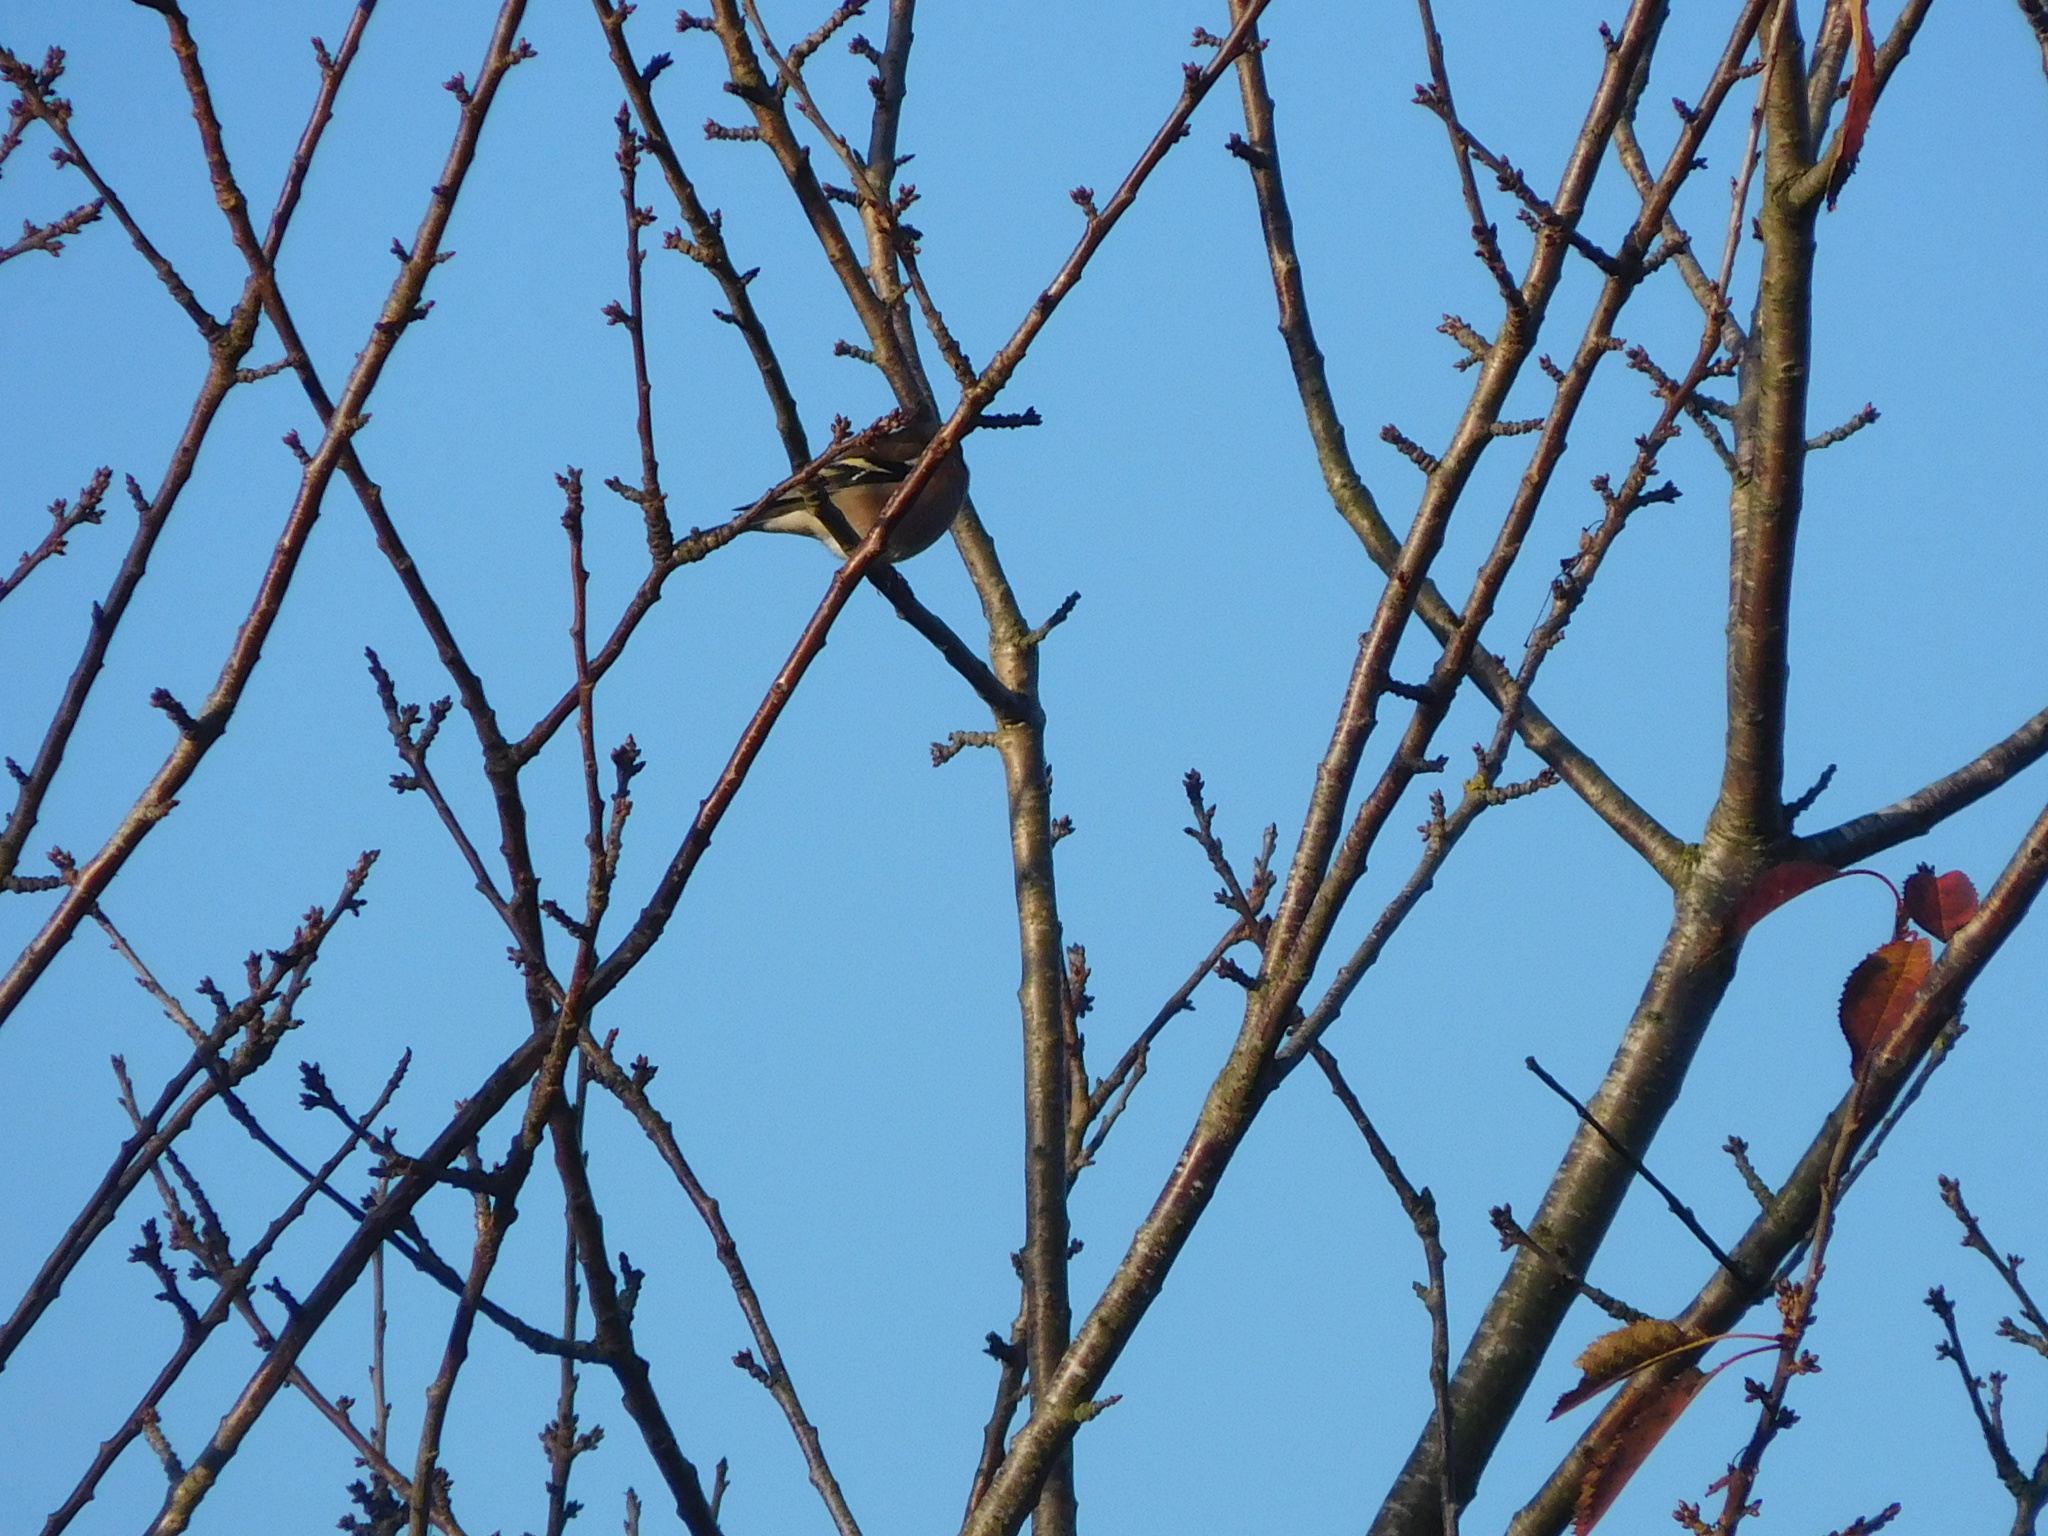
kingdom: Animalia
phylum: Chordata
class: Aves
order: Passeriformes
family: Fringillidae
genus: Fringilla
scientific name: Fringilla coelebs
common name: Common chaffinch
